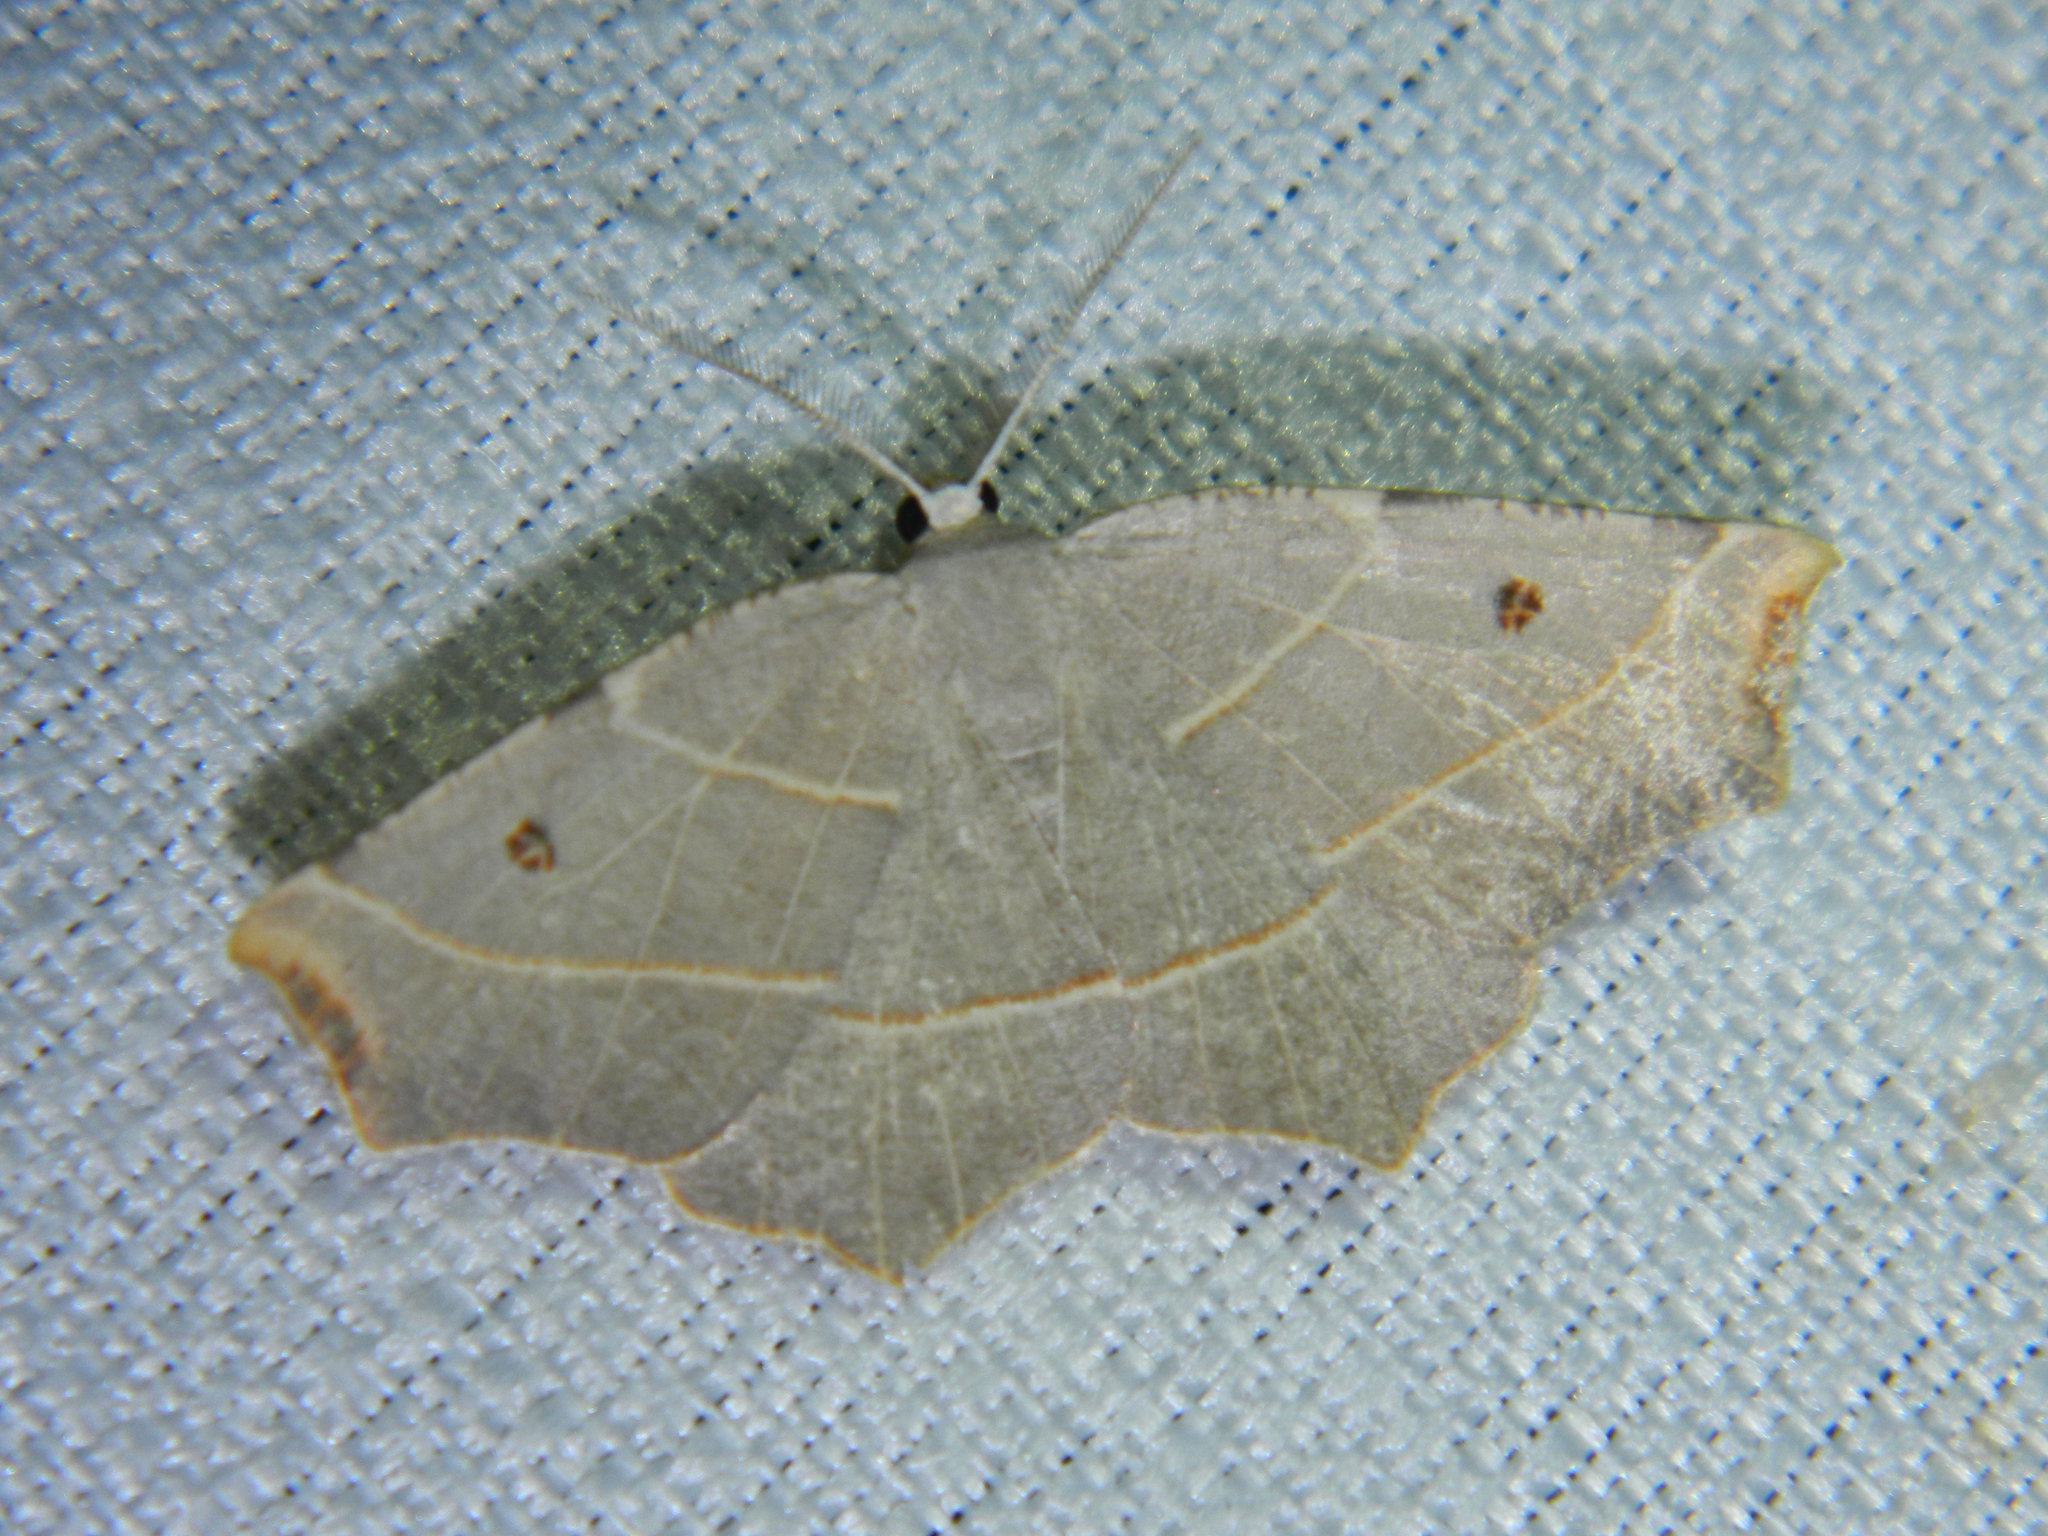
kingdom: Animalia
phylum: Arthropoda
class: Insecta
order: Lepidoptera
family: Geometridae
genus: Metanema
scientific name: Metanema inatomaria
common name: Pale metanema
